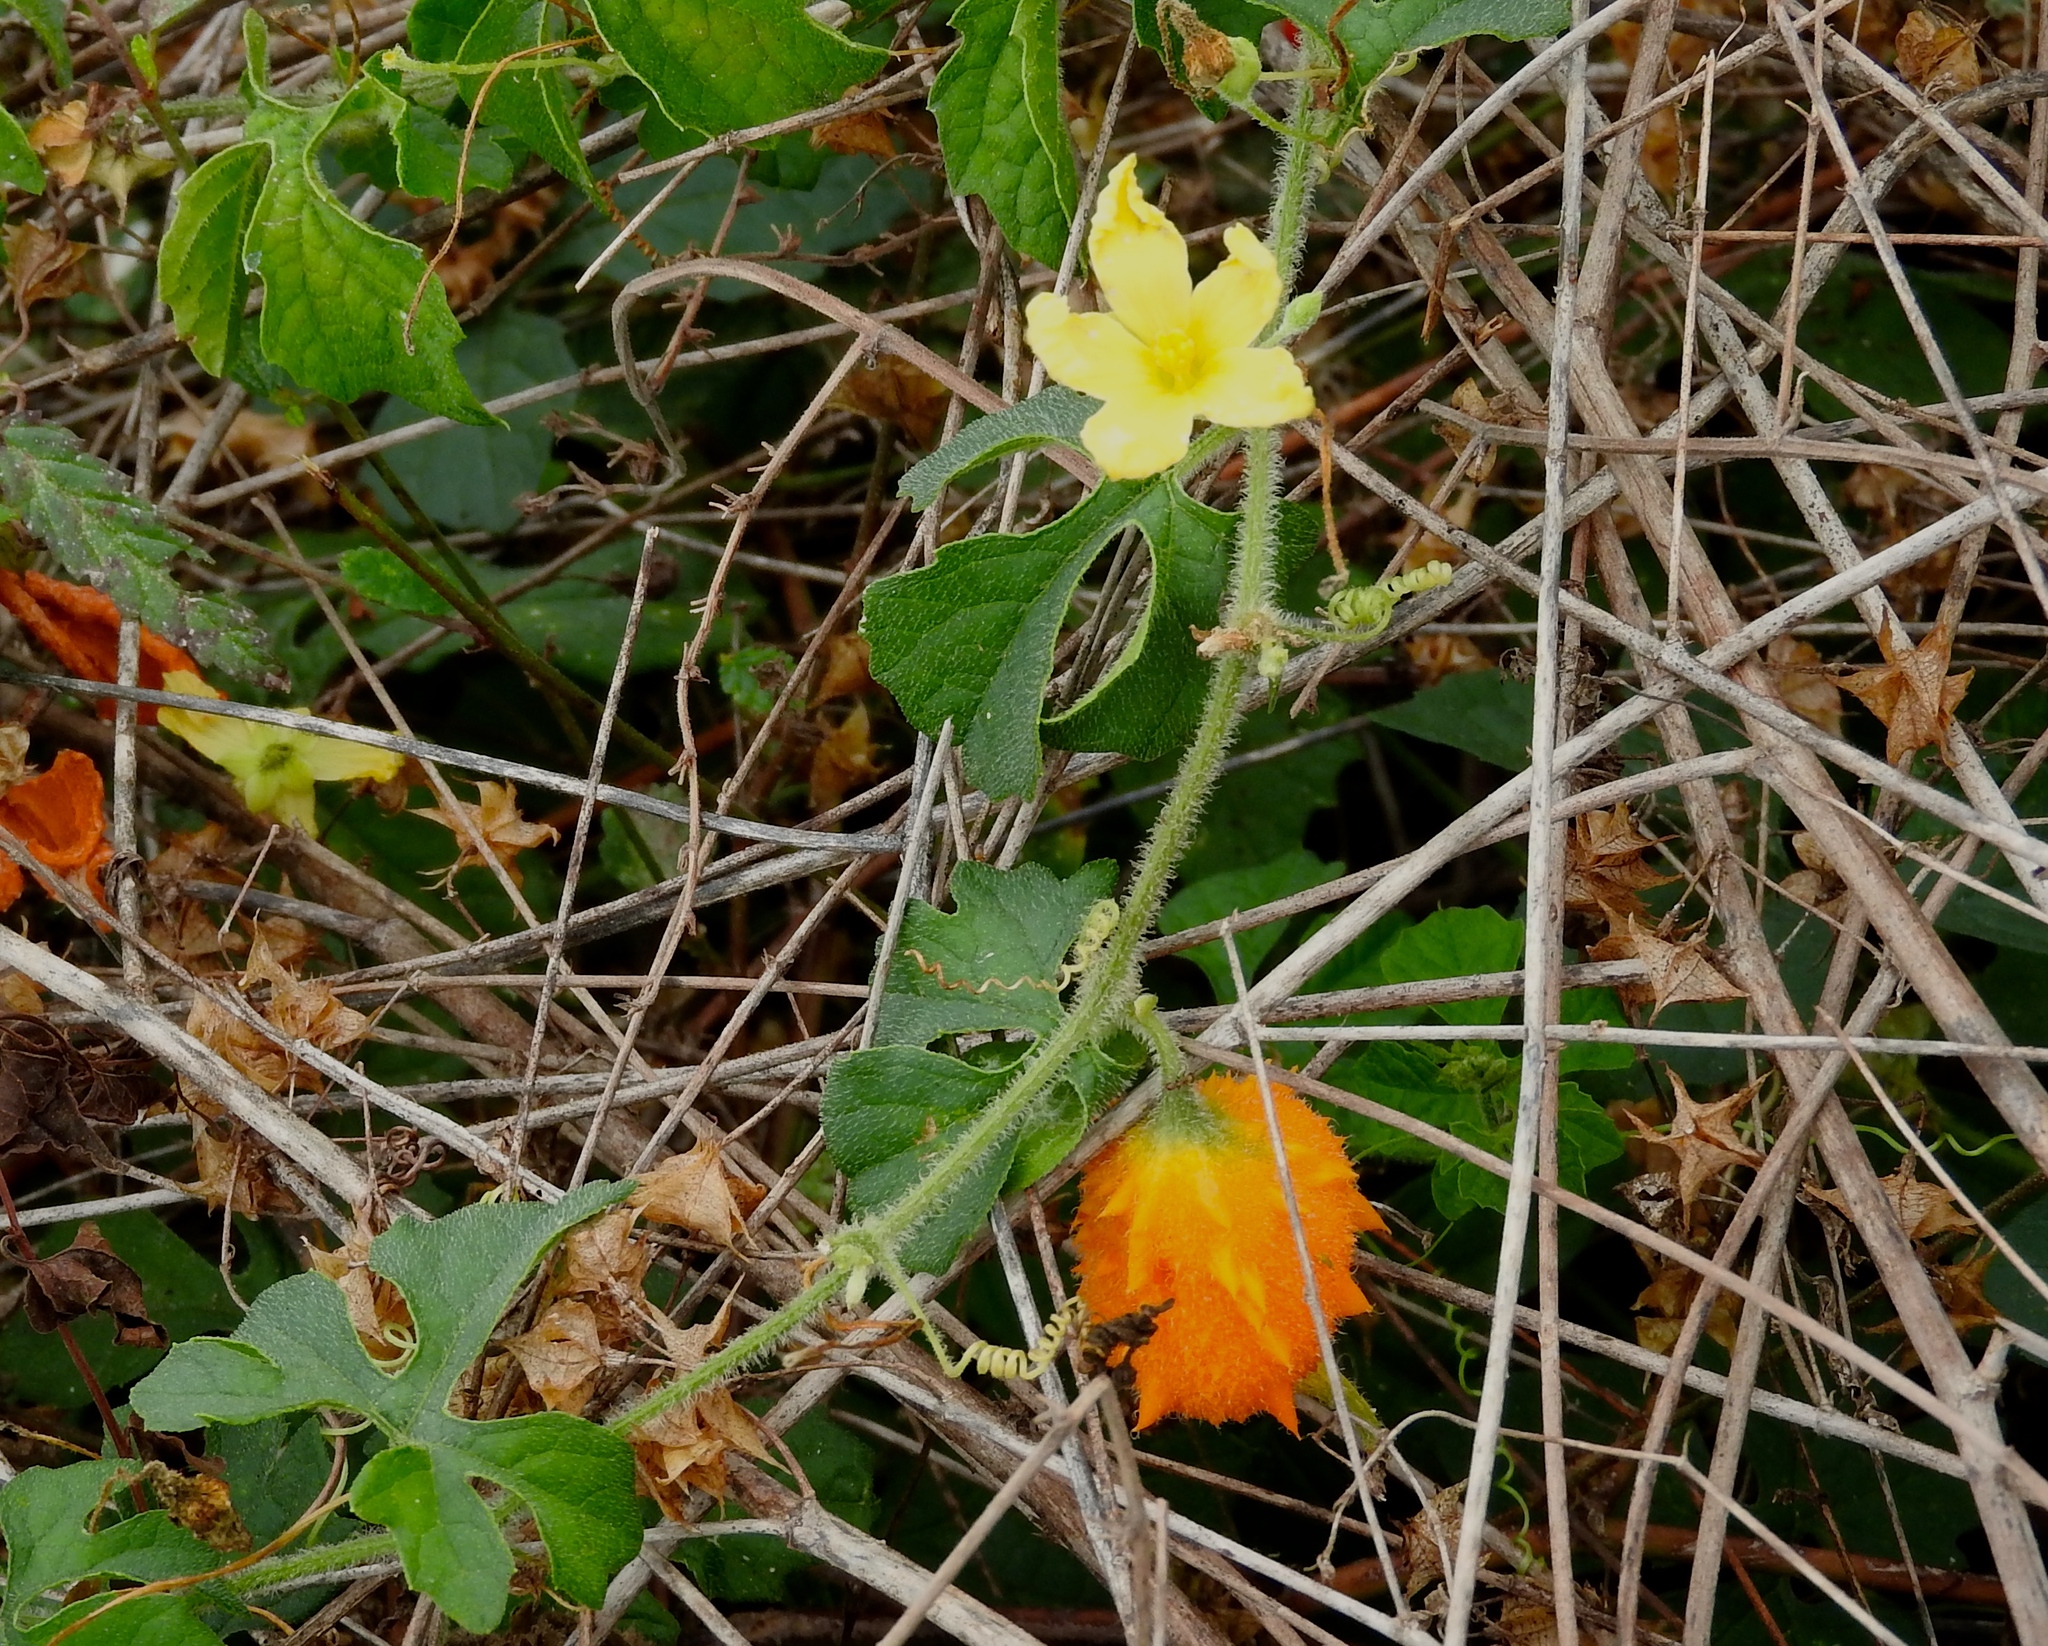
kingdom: Plantae
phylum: Tracheophyta
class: Magnoliopsida
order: Cucurbitales
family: Cucurbitaceae
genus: Momordica
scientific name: Momordica charantia
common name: Balsampear
